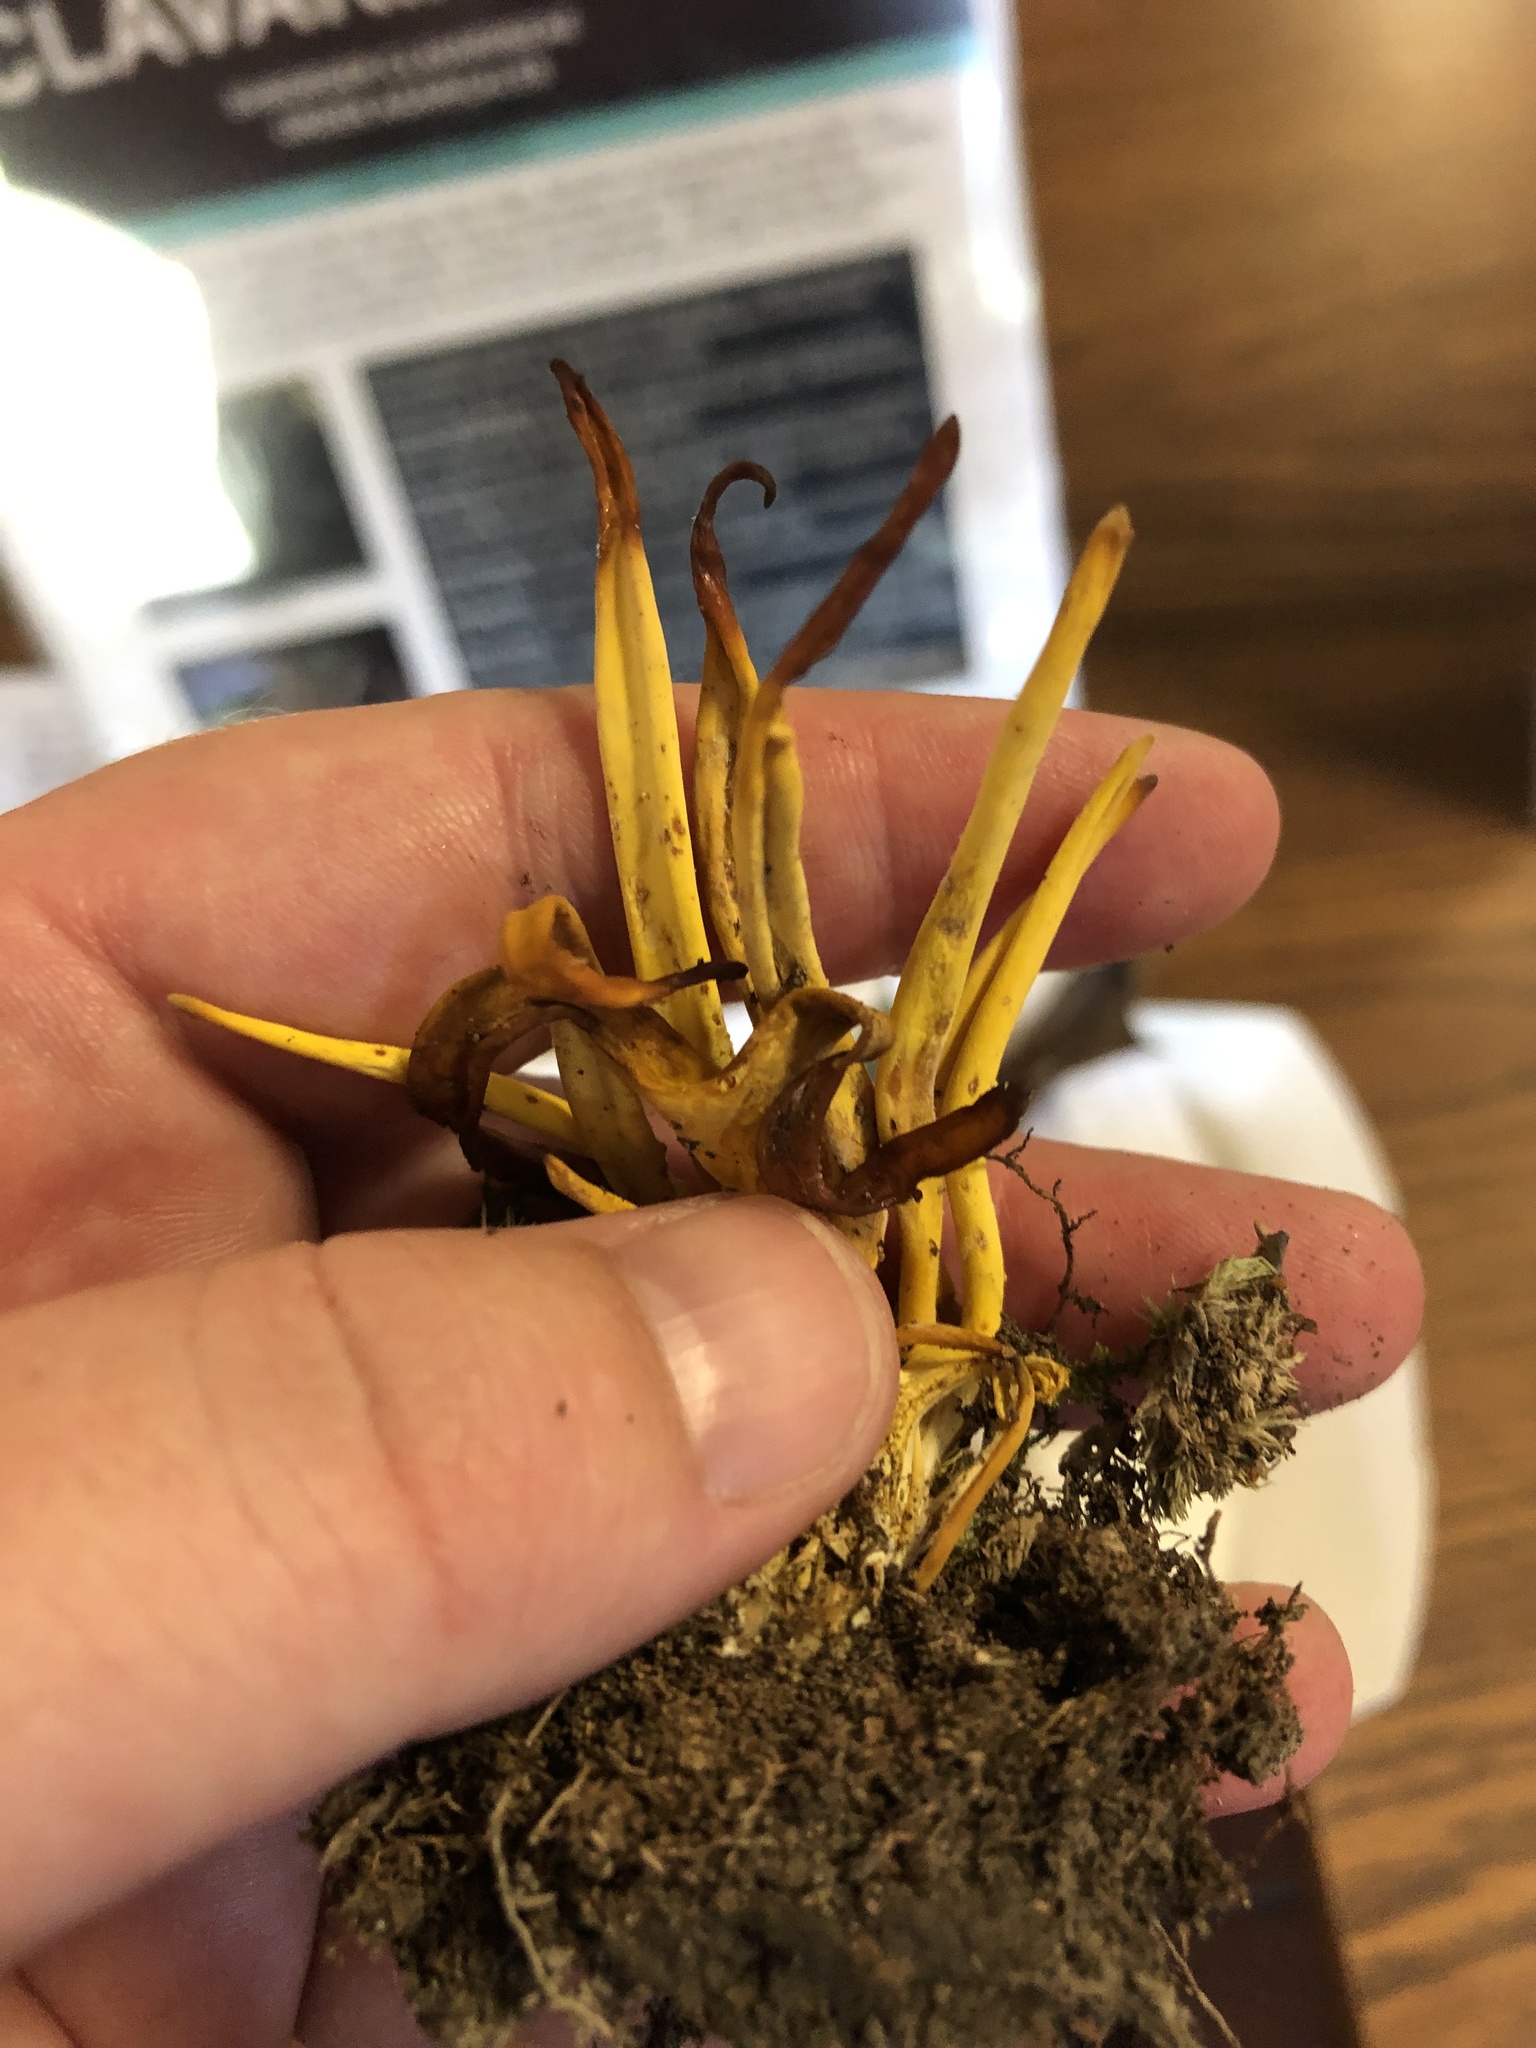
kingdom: Fungi
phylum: Basidiomycota
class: Agaricomycetes
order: Agaricales
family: Clavariaceae
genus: Clavulinopsis
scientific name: Clavulinopsis fusiformis
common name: Golden spindles
